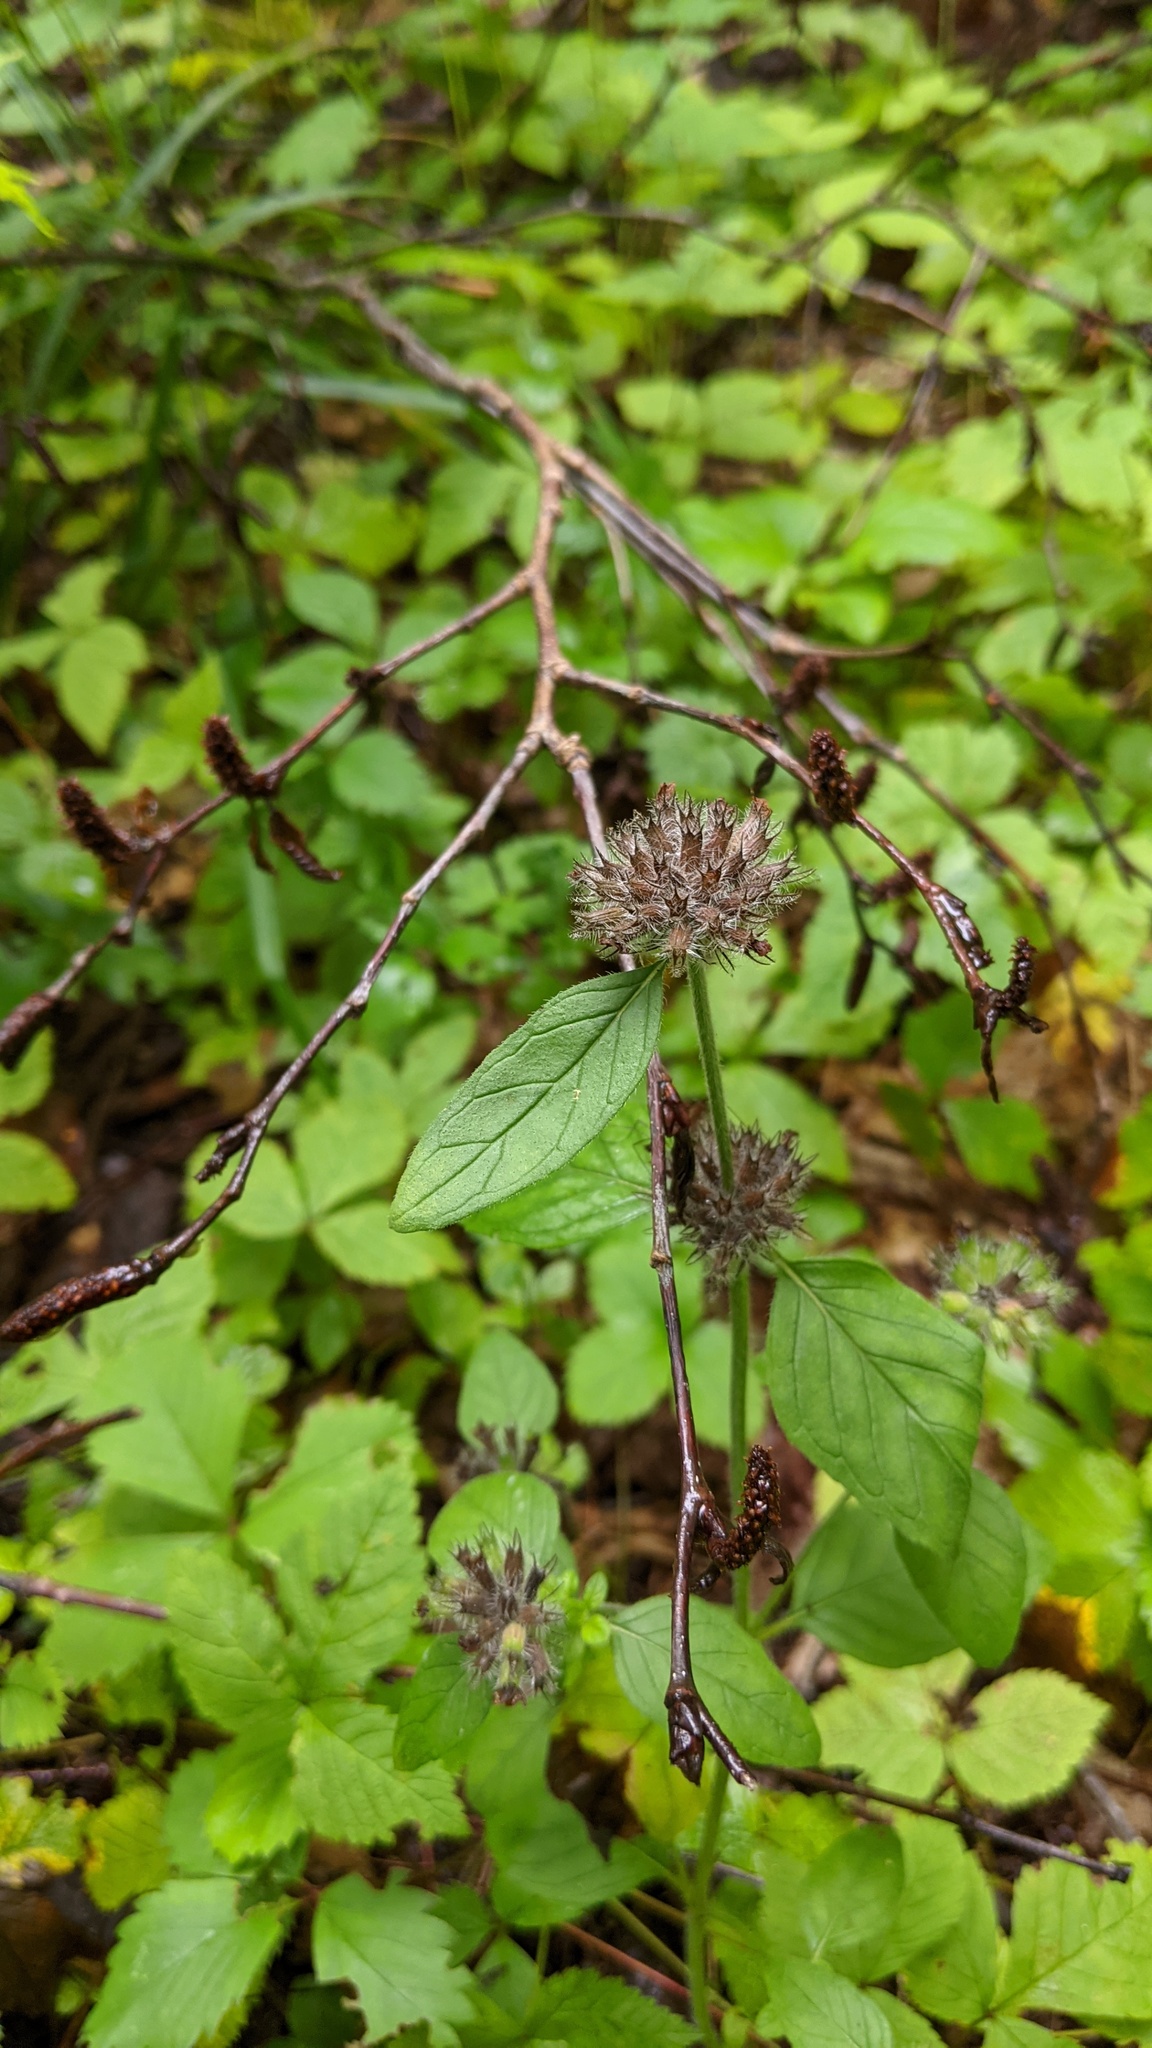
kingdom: Plantae
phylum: Tracheophyta
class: Magnoliopsida
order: Lamiales
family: Lamiaceae
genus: Clinopodium
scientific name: Clinopodium vulgare
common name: Wild basil
